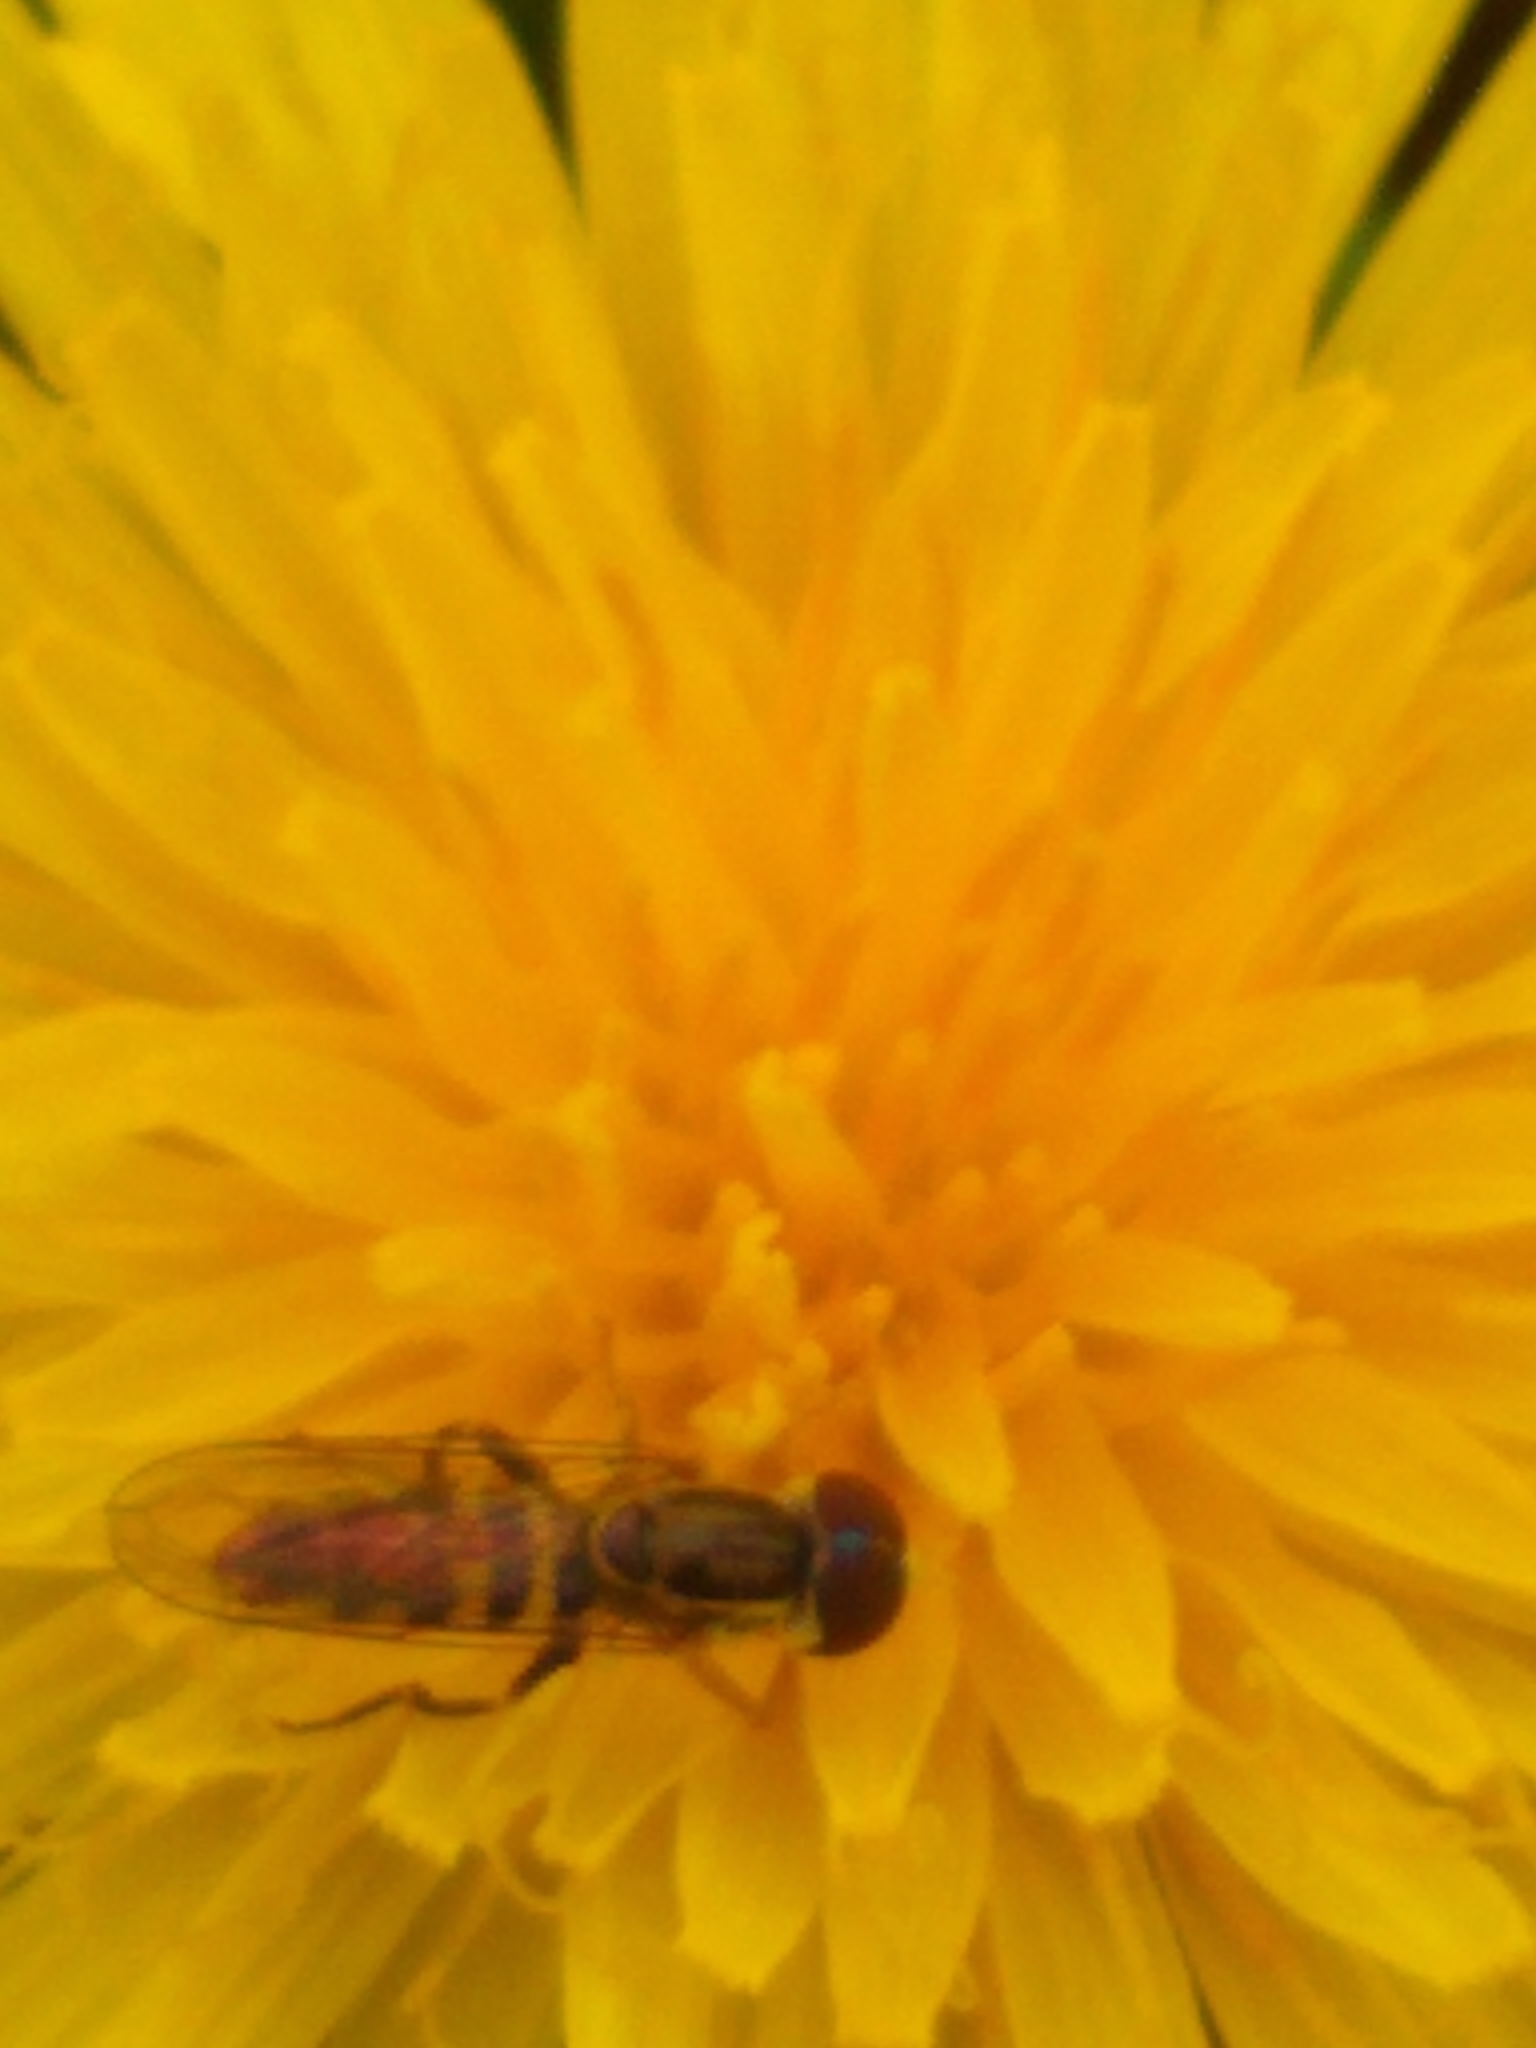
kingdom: Animalia
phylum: Arthropoda
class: Insecta
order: Diptera
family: Syrphidae
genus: Toxomerus
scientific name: Toxomerus geminatus
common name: Eastern calligrapher
